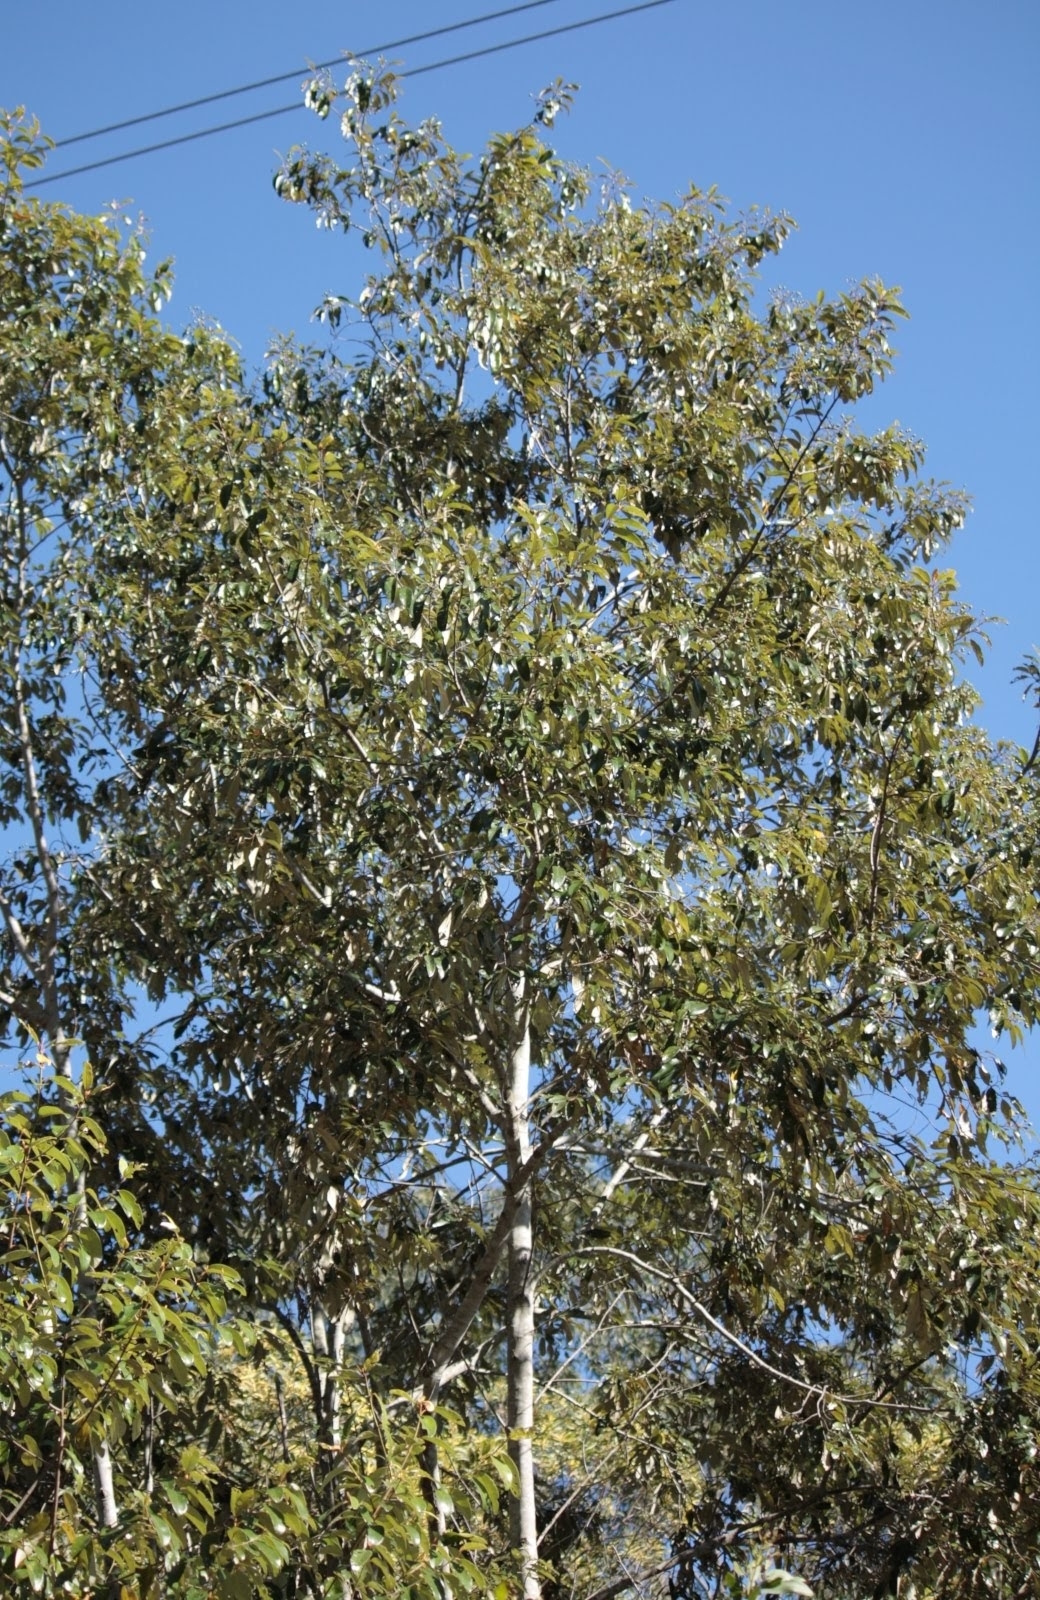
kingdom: Plantae
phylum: Tracheophyta
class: Magnoliopsida
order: Rosales
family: Rhamnaceae
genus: Alphitonia
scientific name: Alphitonia excelsa
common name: Red ash
